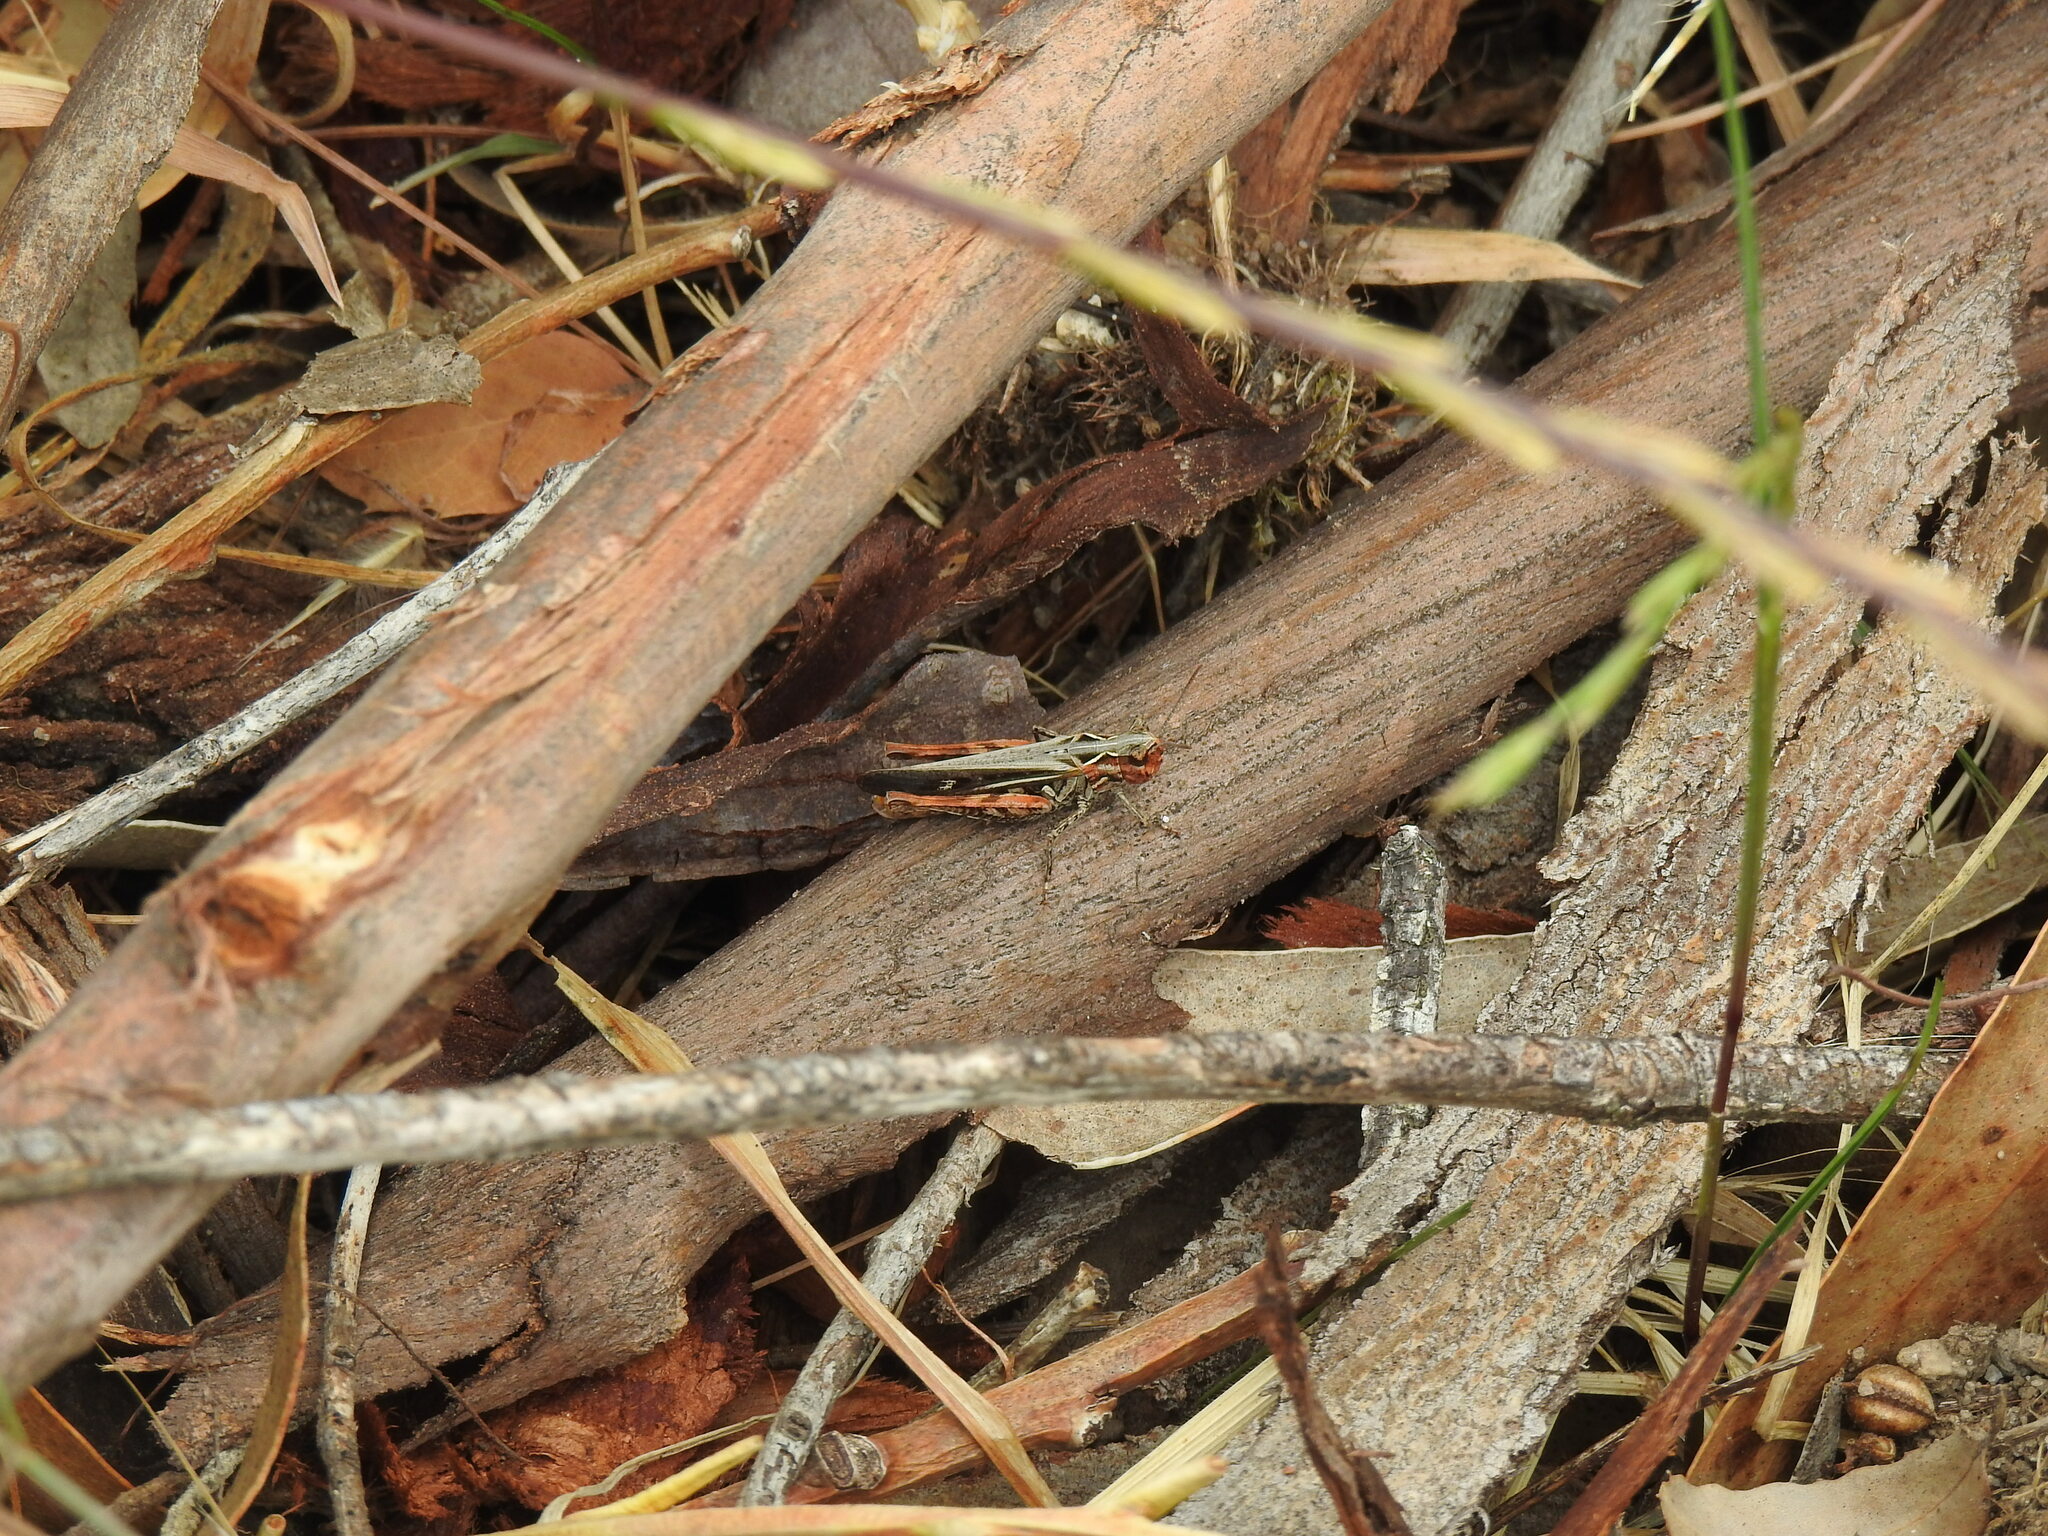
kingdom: Animalia
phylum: Arthropoda
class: Insecta
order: Orthoptera
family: Acrididae
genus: Omocestus
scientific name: Omocestus raymondi
